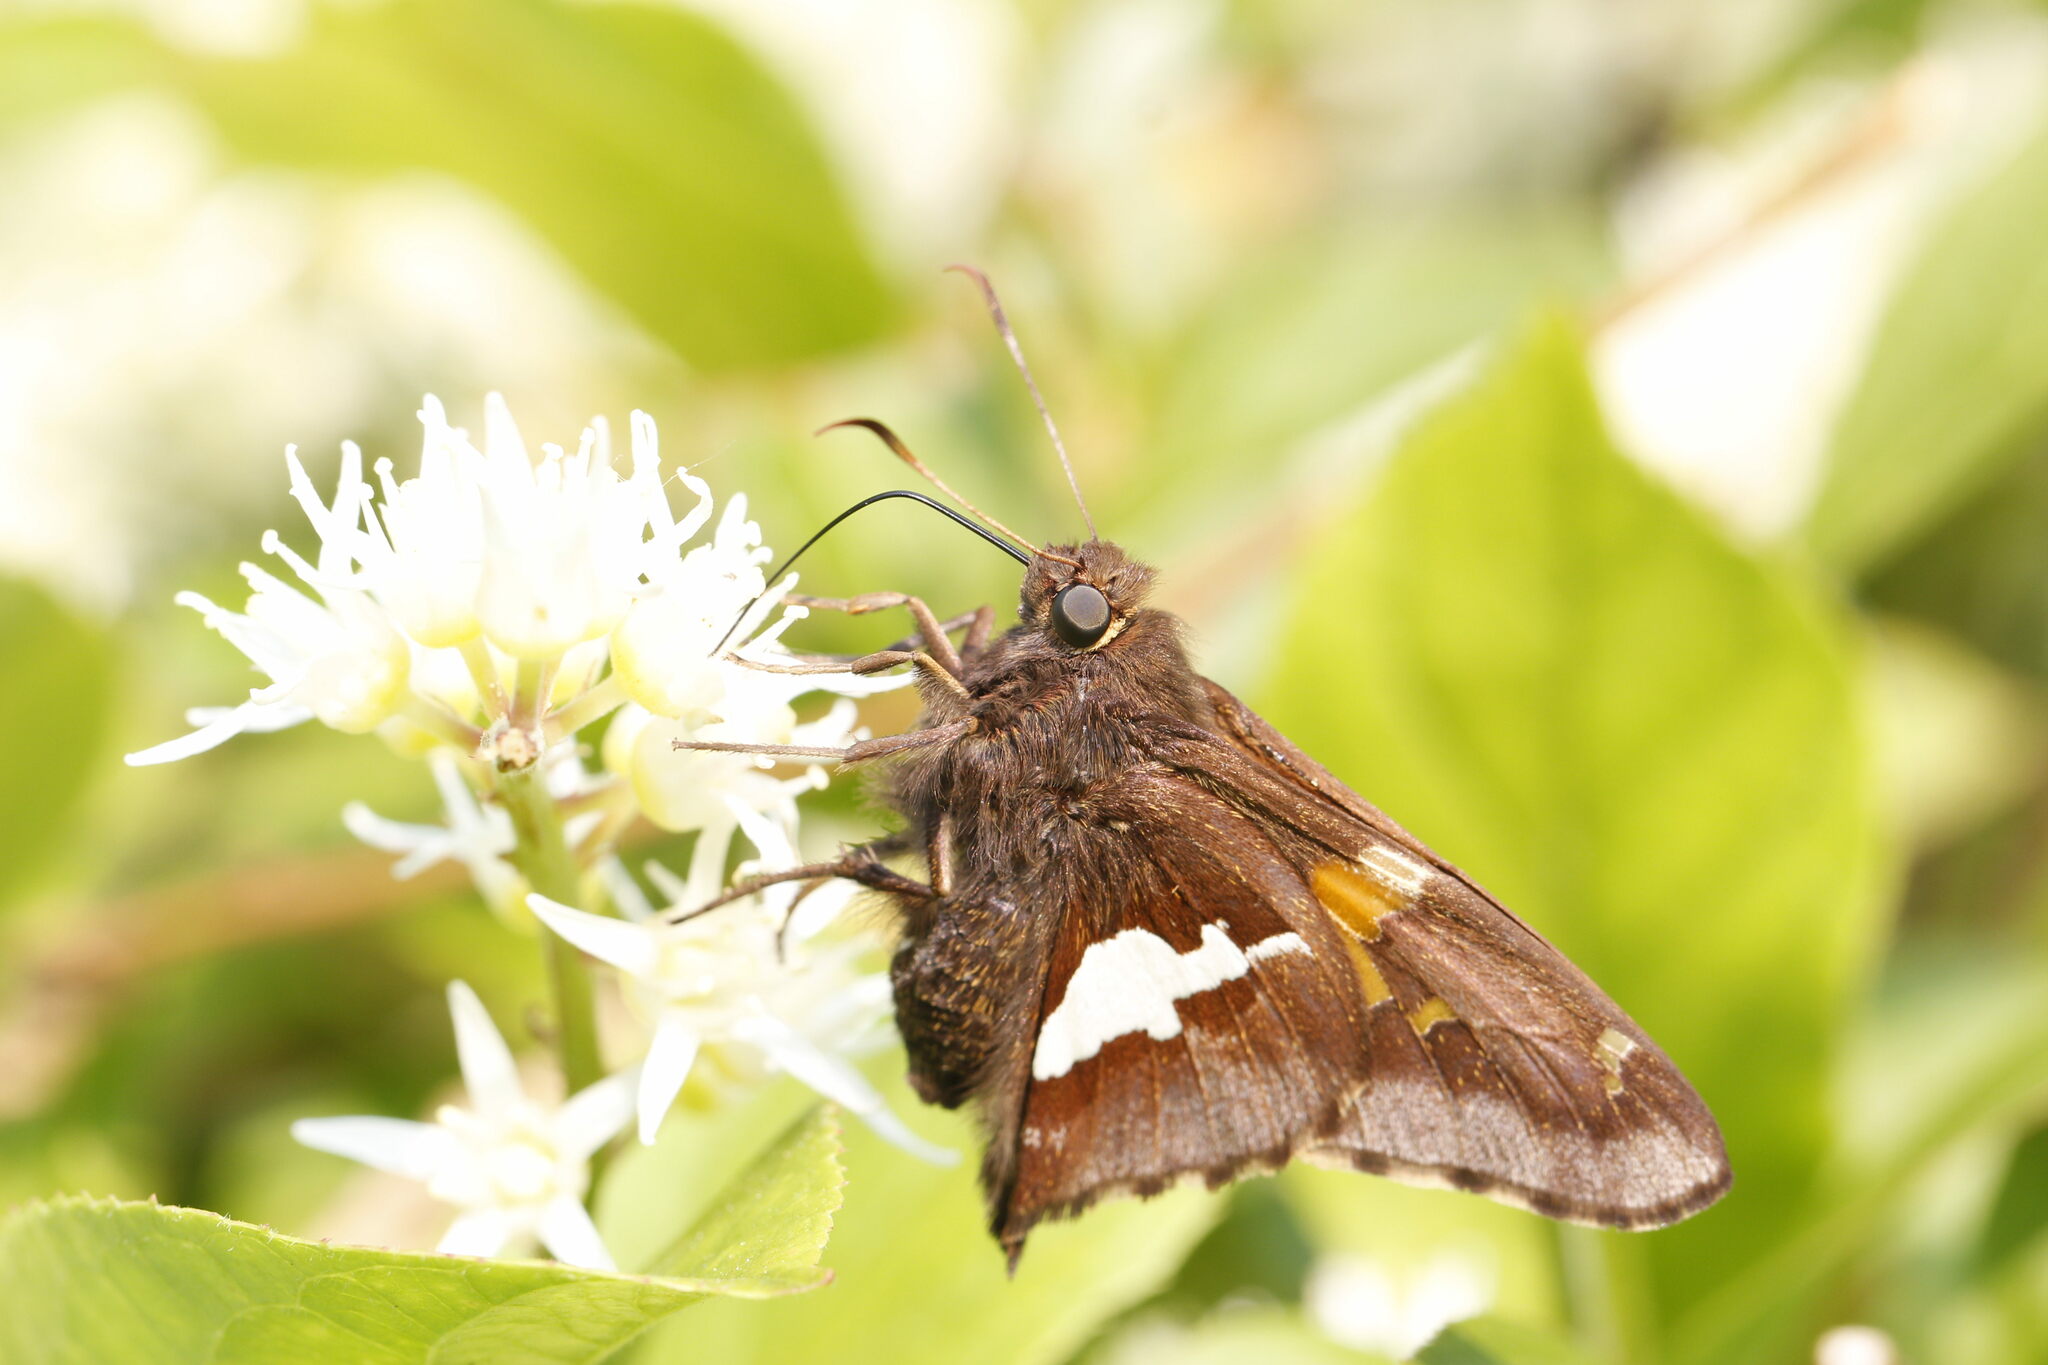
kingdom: Animalia
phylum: Arthropoda
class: Insecta
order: Lepidoptera
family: Hesperiidae
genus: Epargyreus
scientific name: Epargyreus clarus
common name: Silver-spotted skipper
